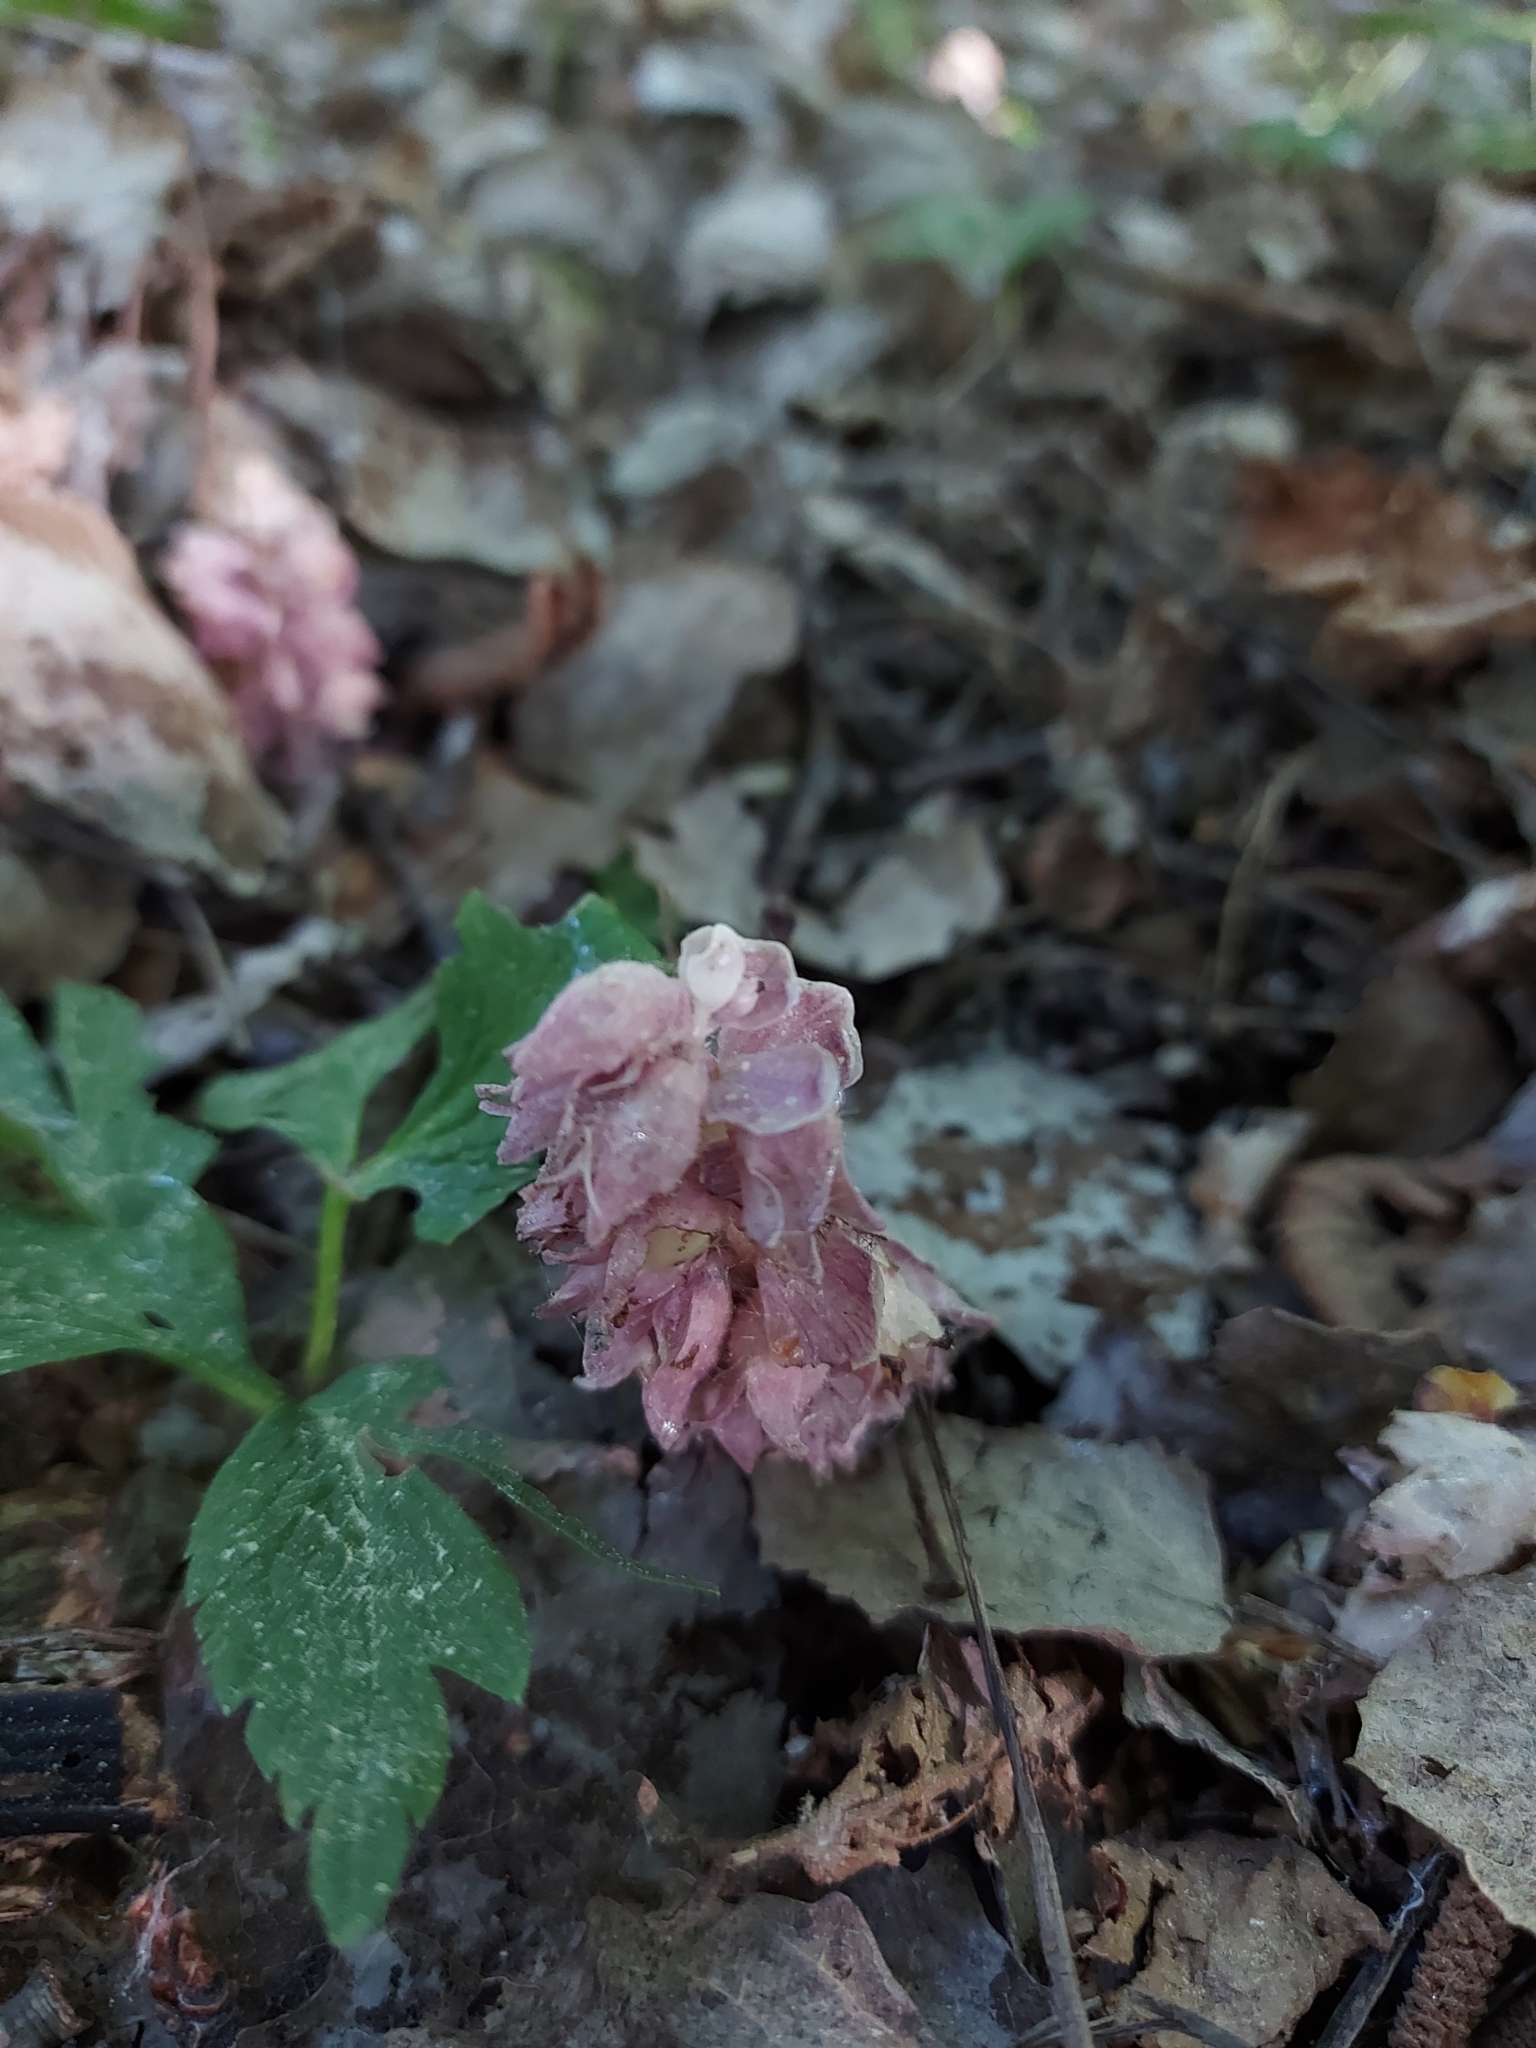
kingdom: Plantae
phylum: Tracheophyta
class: Magnoliopsida
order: Lamiales
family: Orobanchaceae
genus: Lathraea
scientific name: Lathraea squamaria
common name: Toothwort
